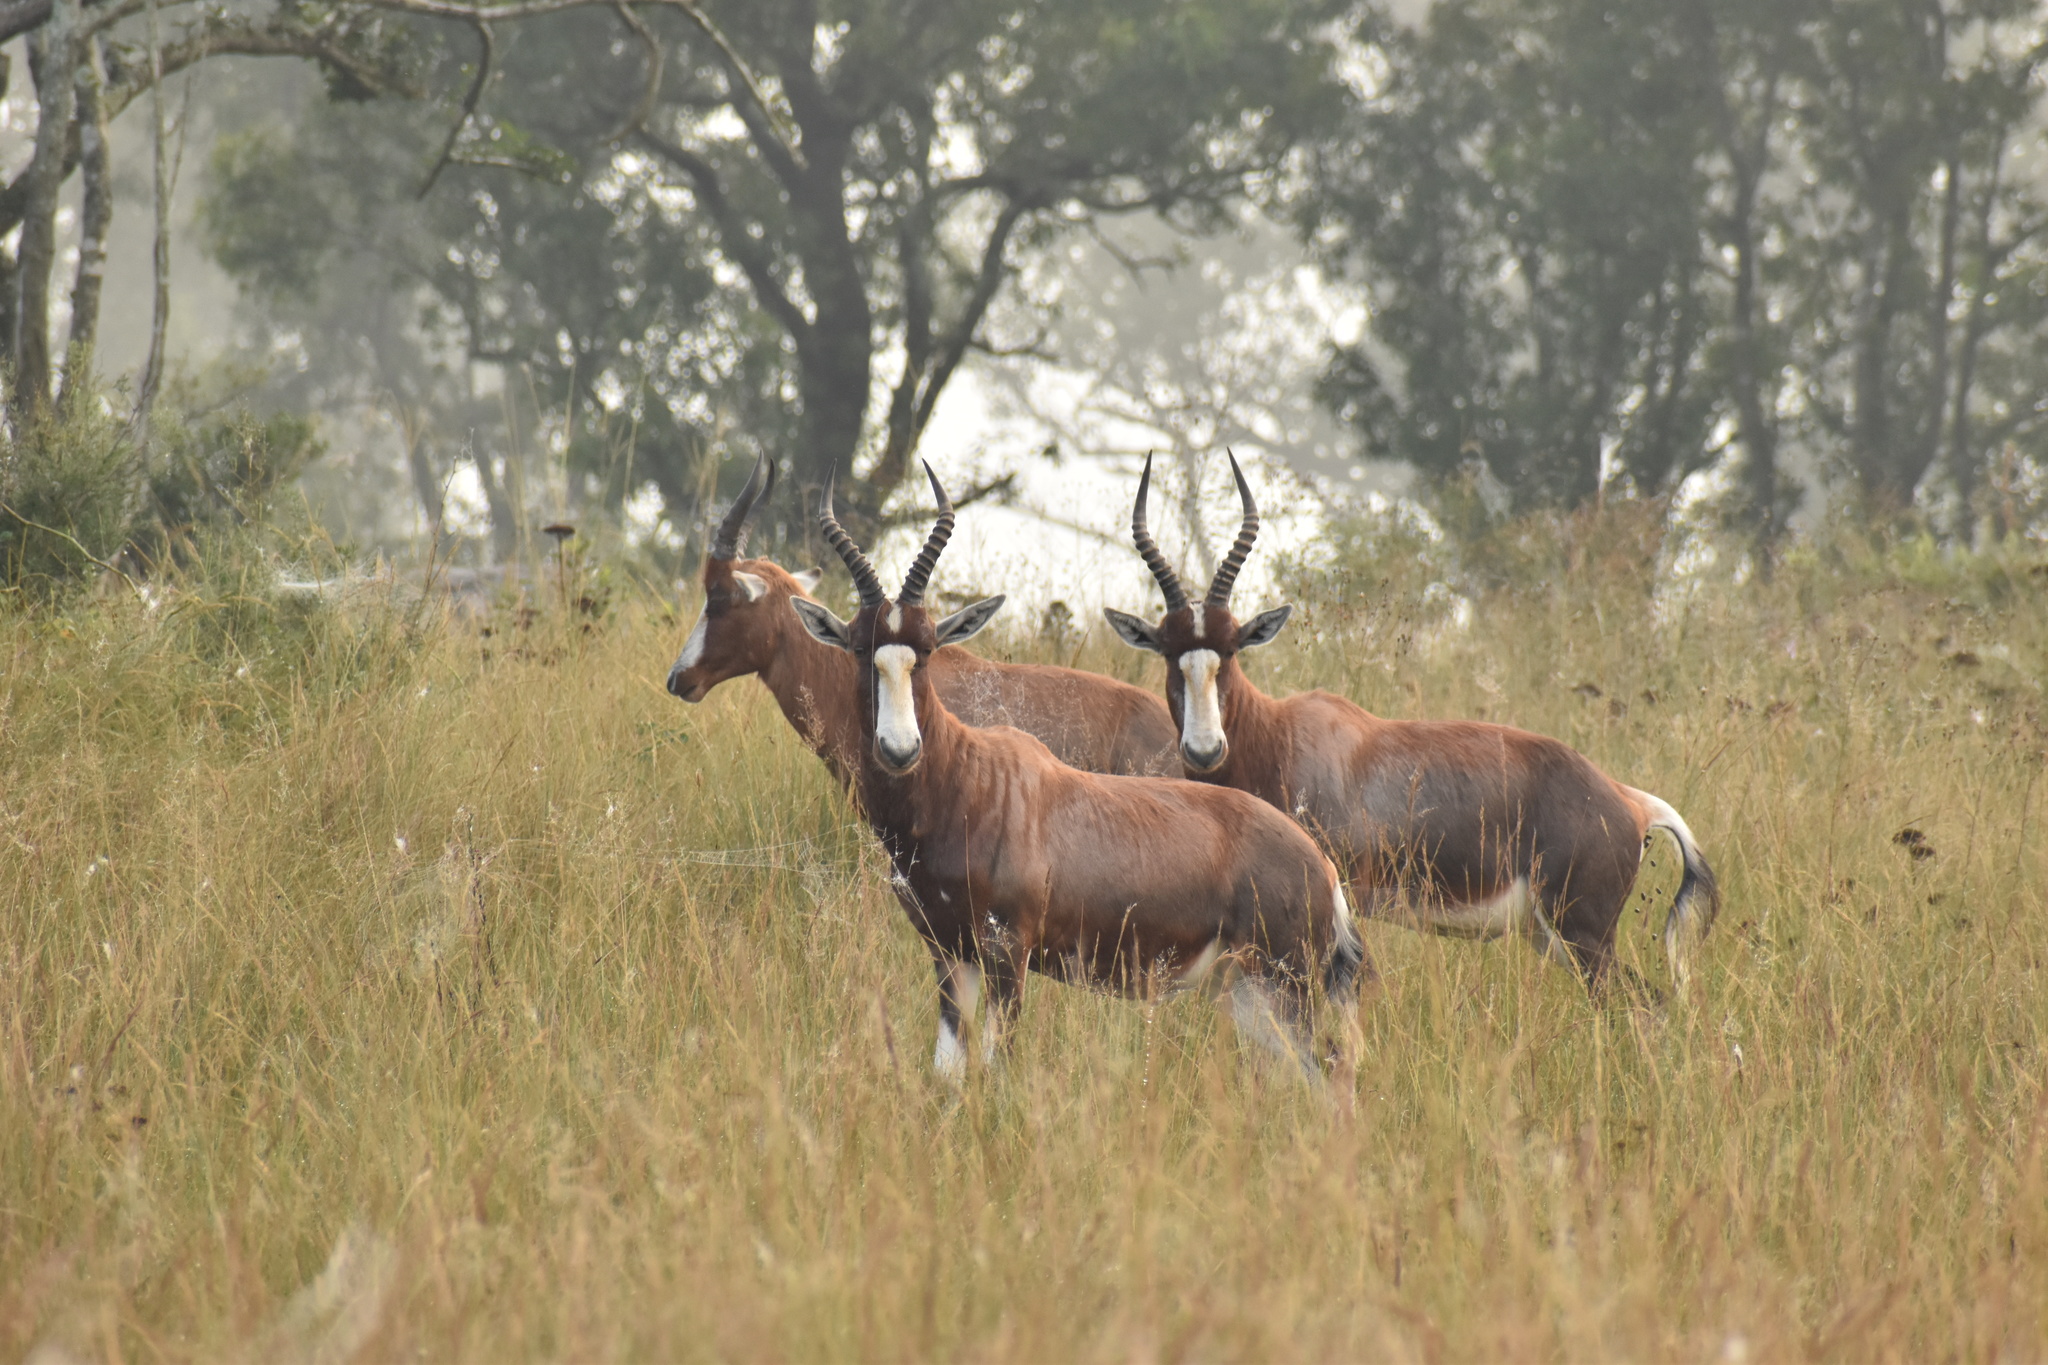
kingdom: Animalia
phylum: Chordata
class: Mammalia
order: Artiodactyla
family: Bovidae
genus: Damaliscus
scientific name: Damaliscus pygargus
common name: Bontebok
